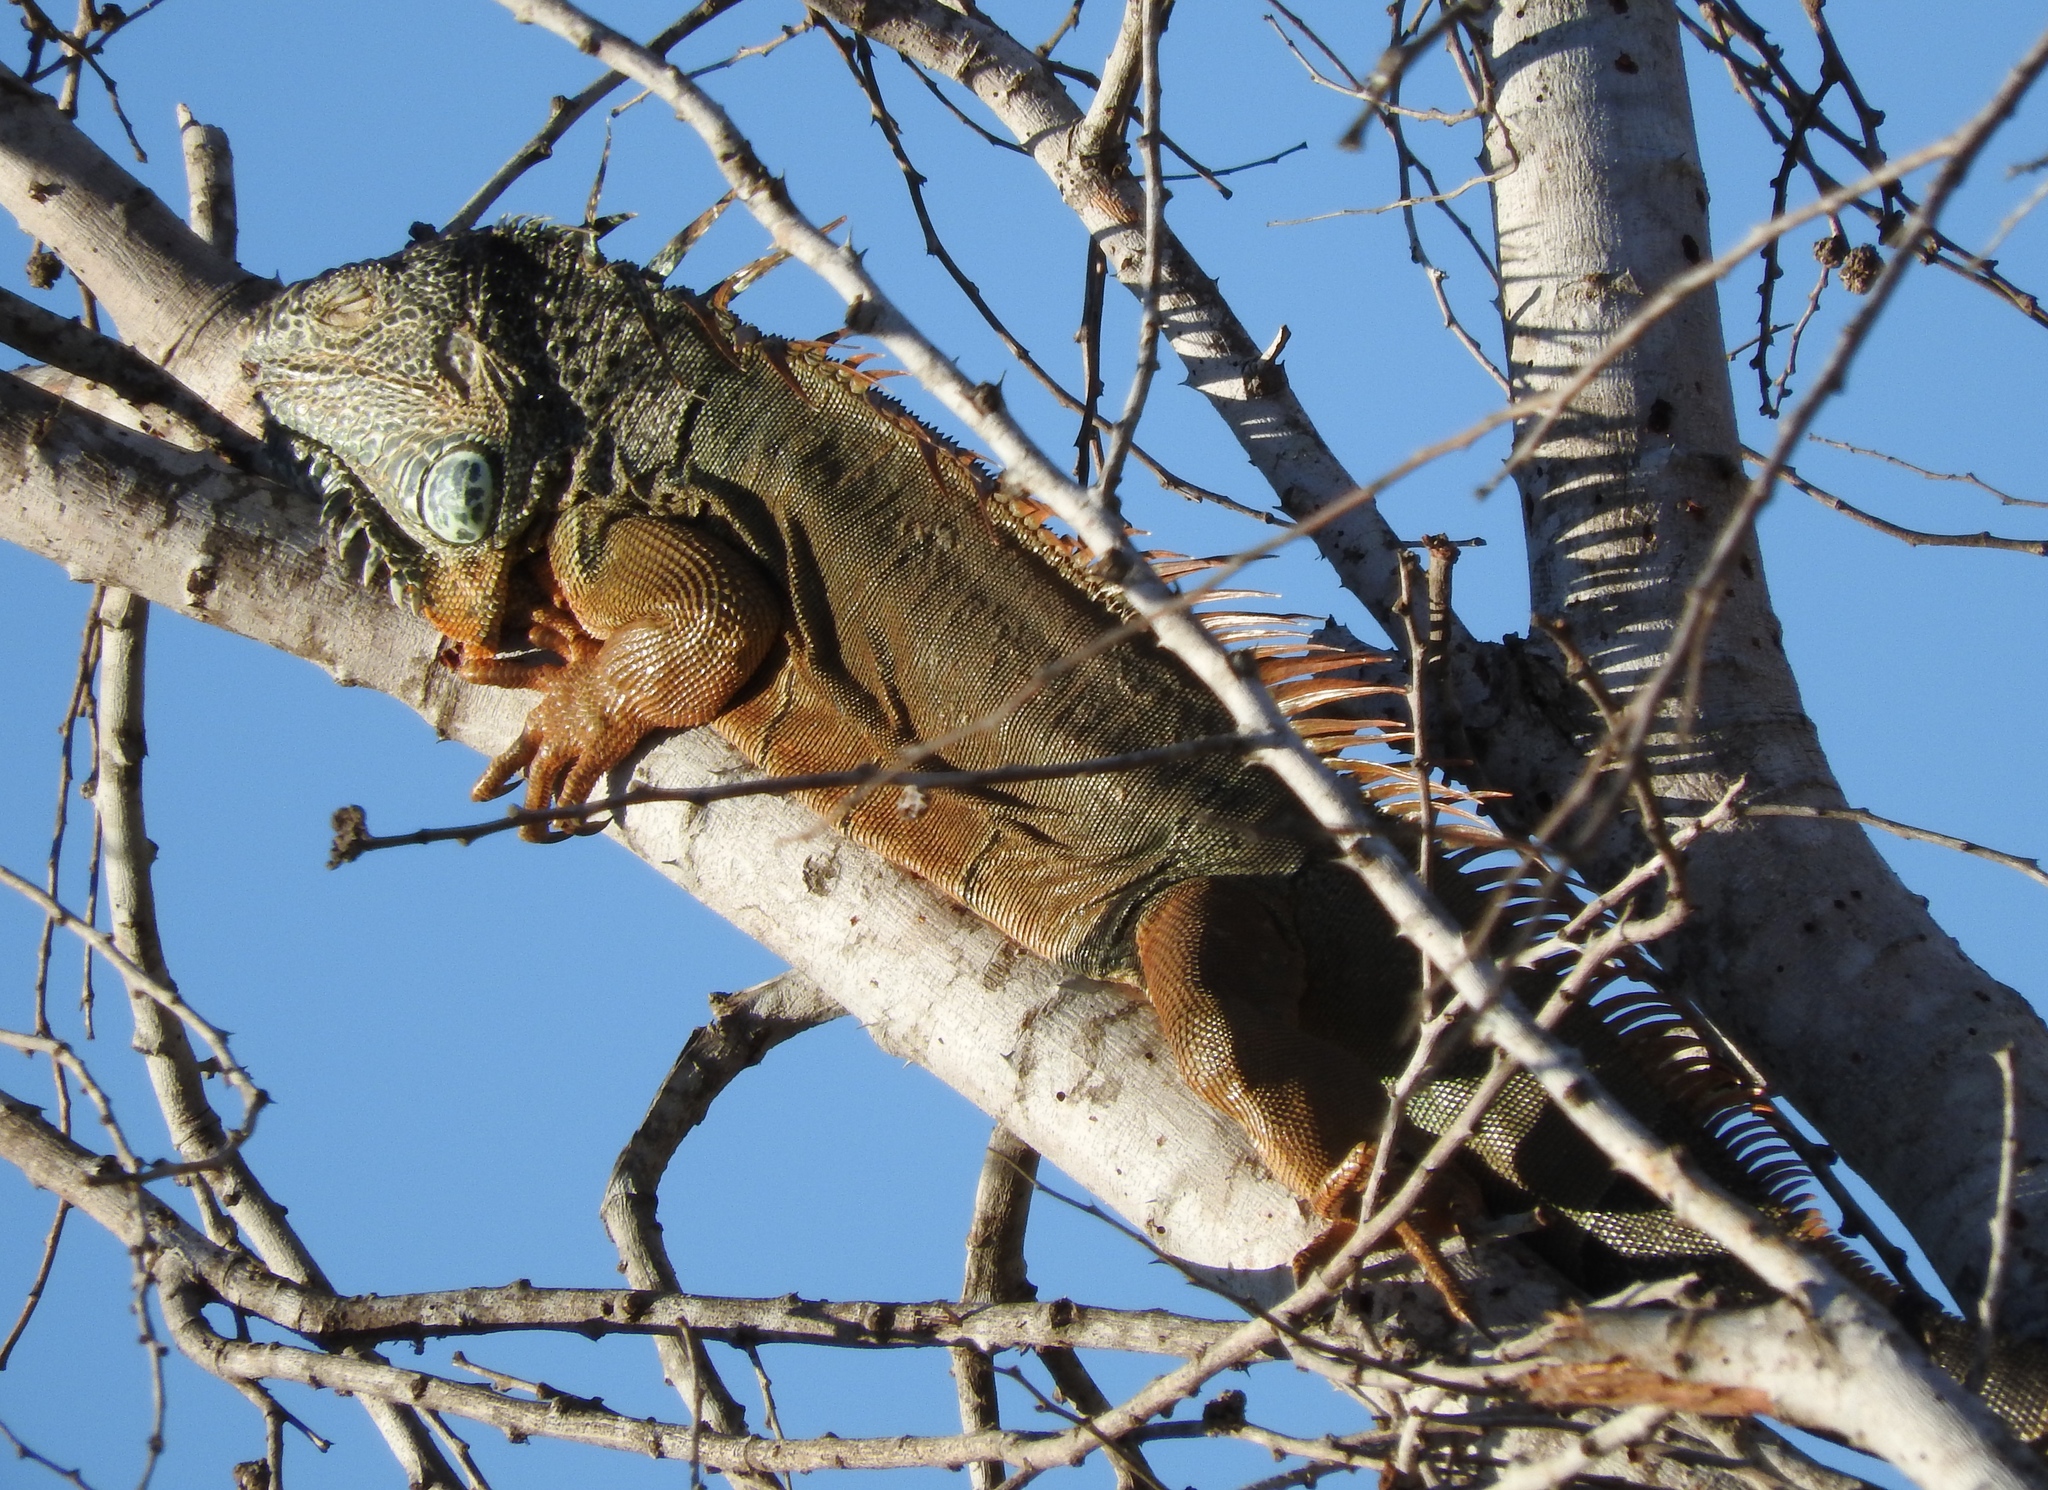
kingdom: Animalia
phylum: Chordata
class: Squamata
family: Iguanidae
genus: Iguana
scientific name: Iguana iguana
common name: Green iguana
